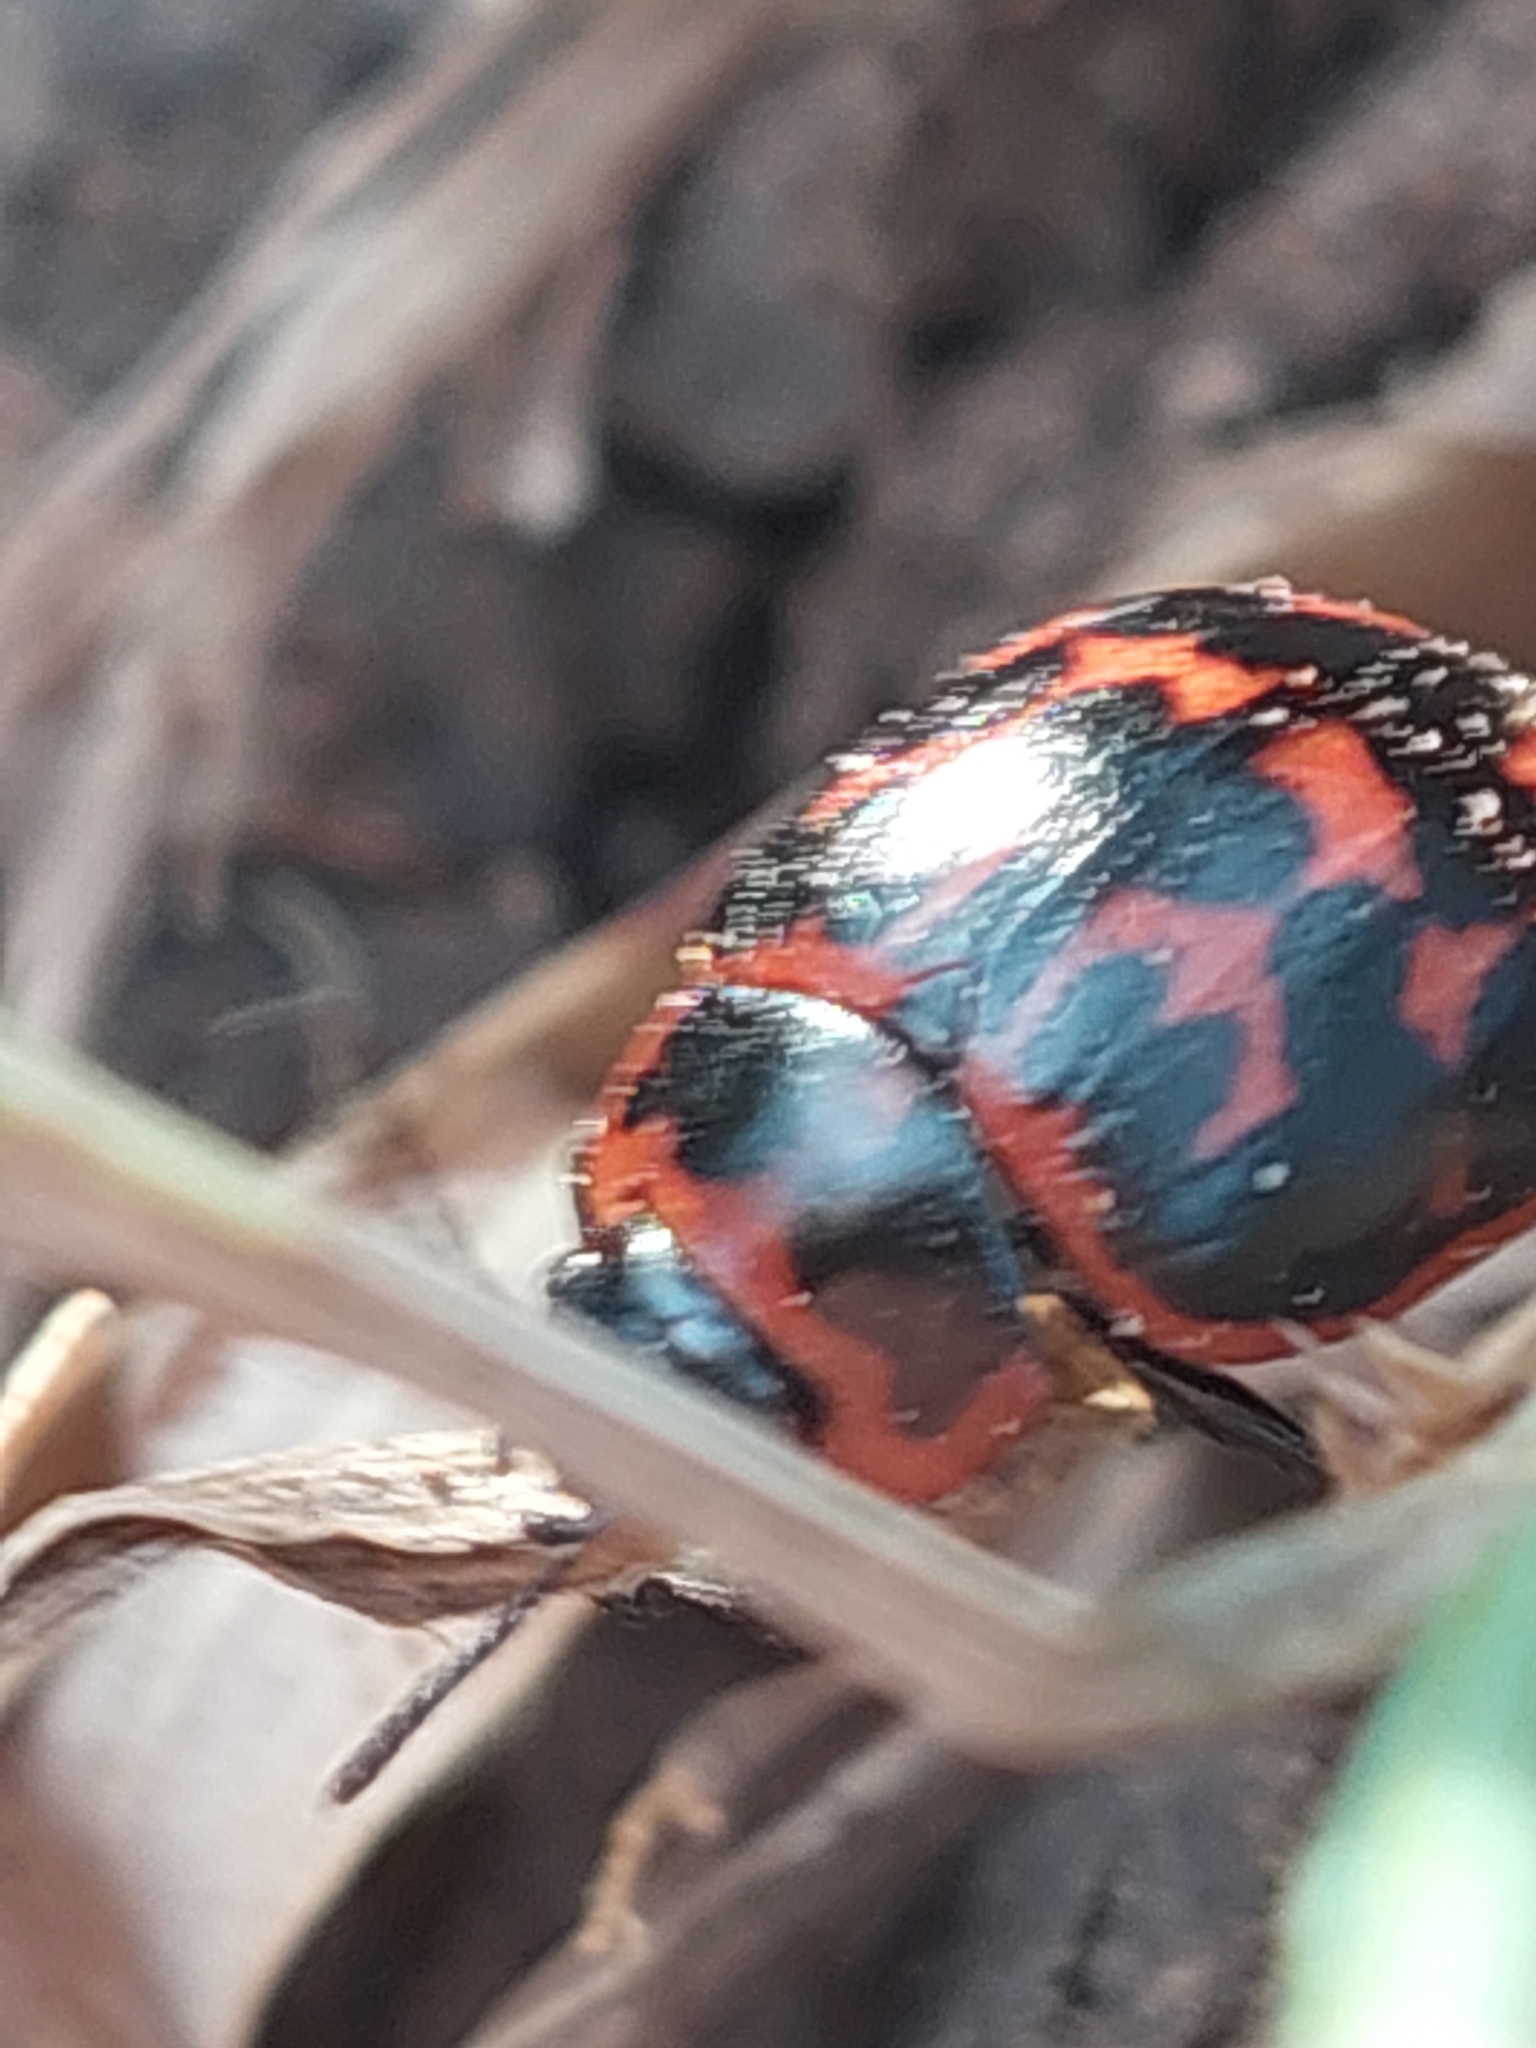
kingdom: Animalia
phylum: Arthropoda
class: Insecta
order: Coleoptera
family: Chrysomelidae
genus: Platyphora
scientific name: Platyphora
